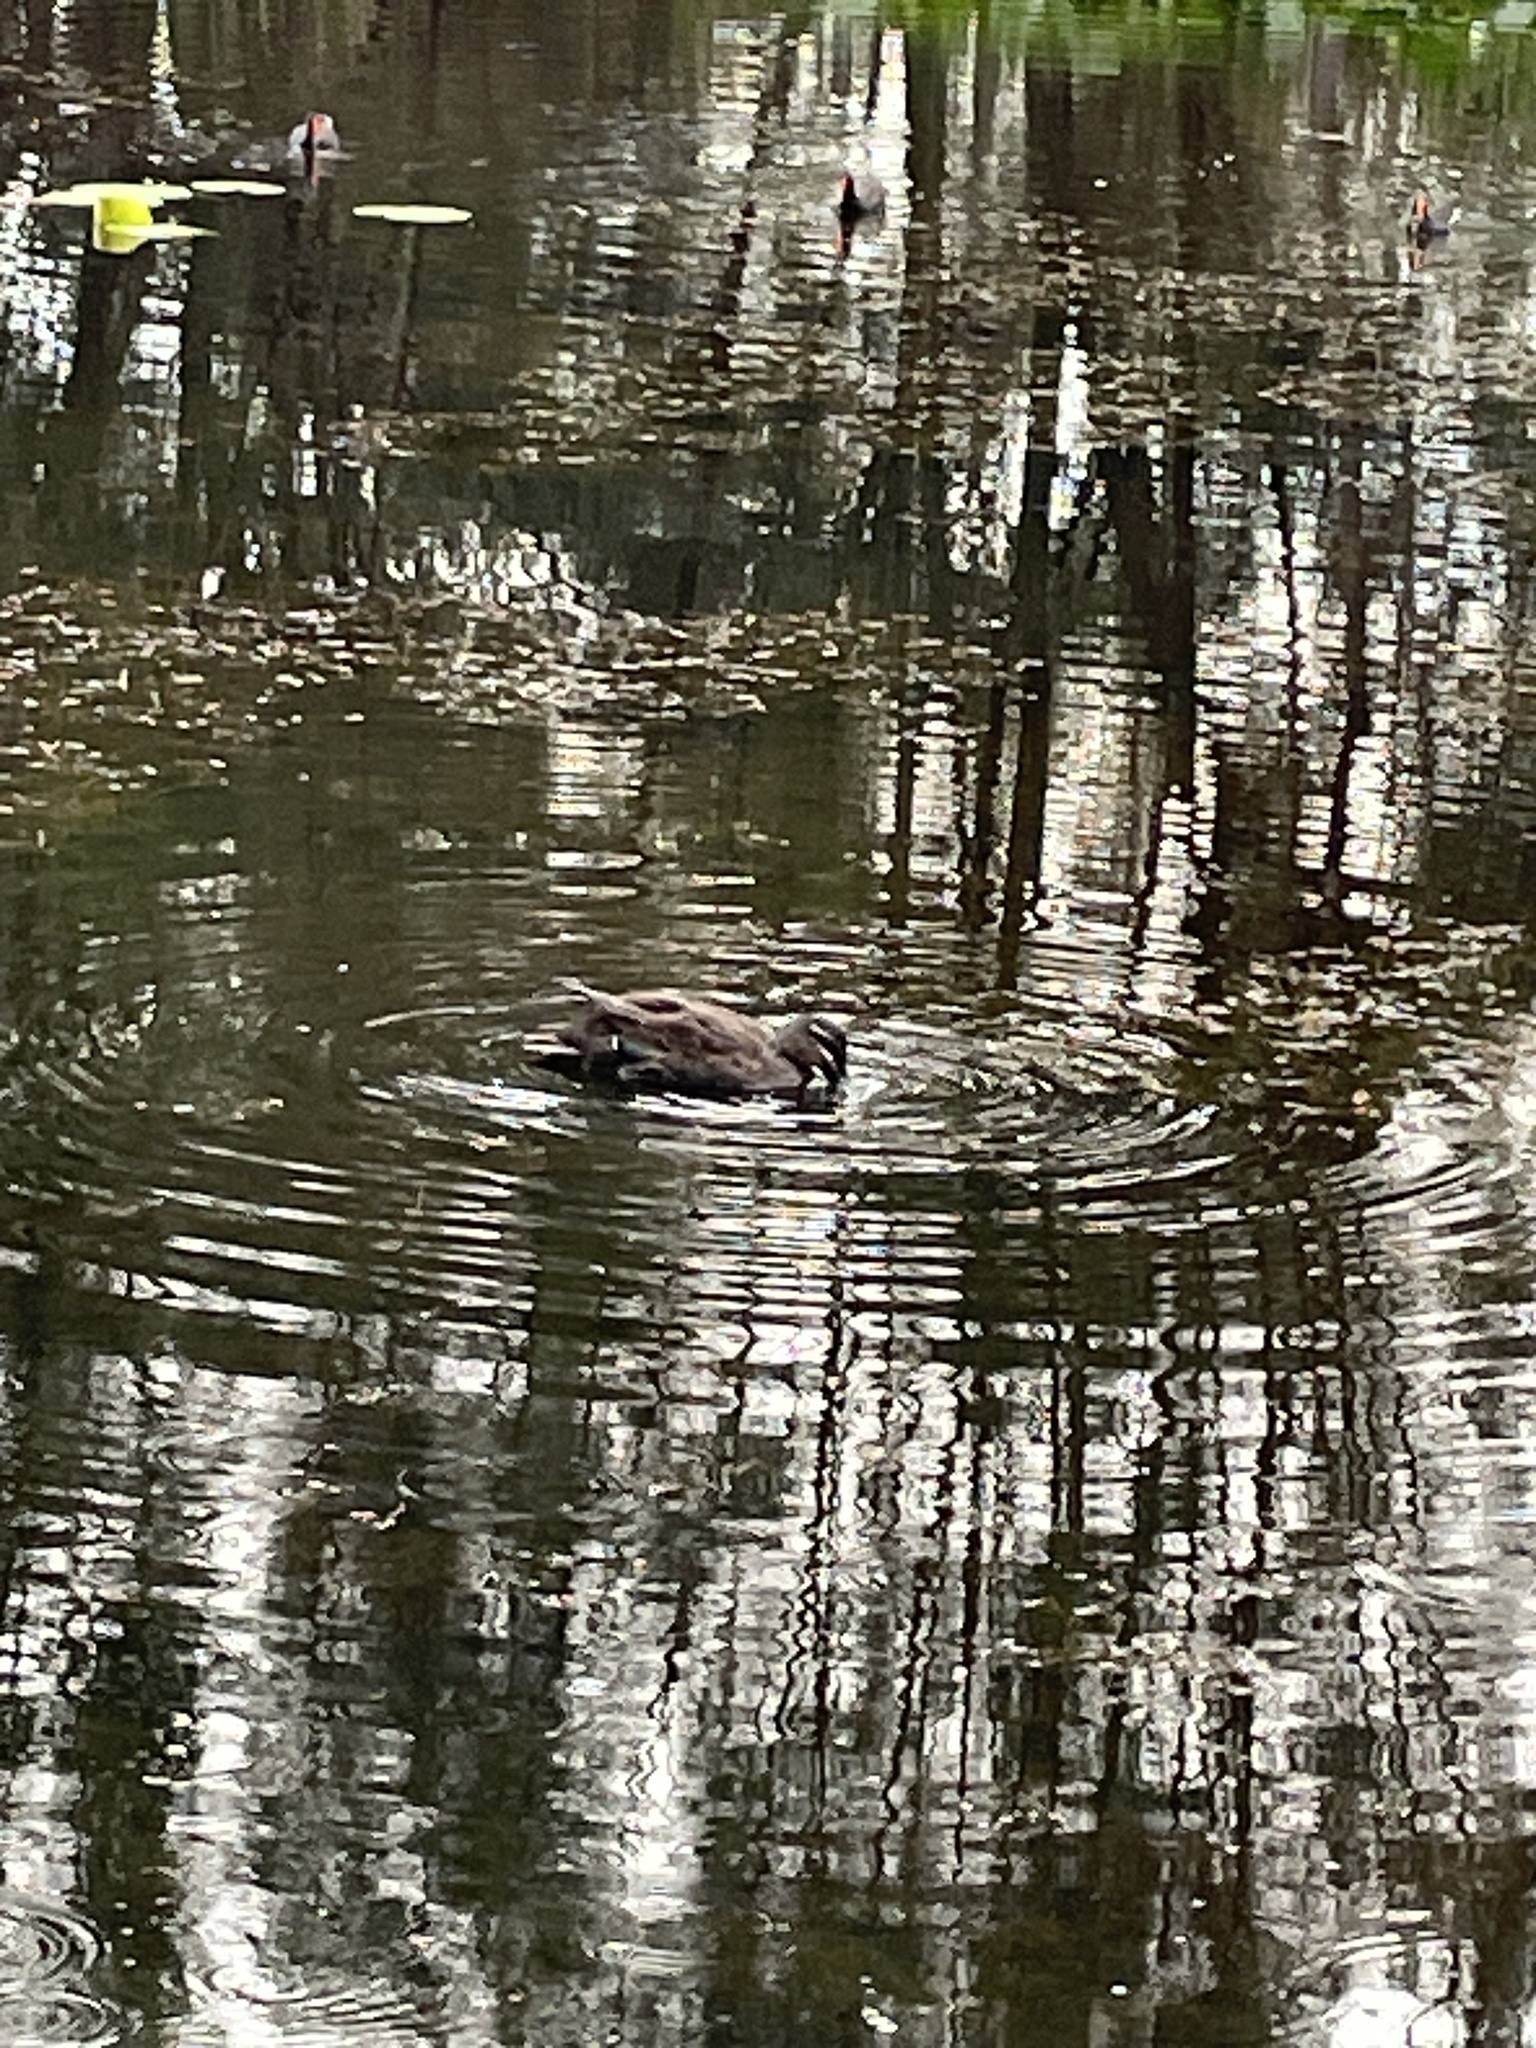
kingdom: Animalia
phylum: Chordata
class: Aves
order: Anseriformes
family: Anatidae
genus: Anas
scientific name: Anas superciliosa
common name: Pacific black duck
